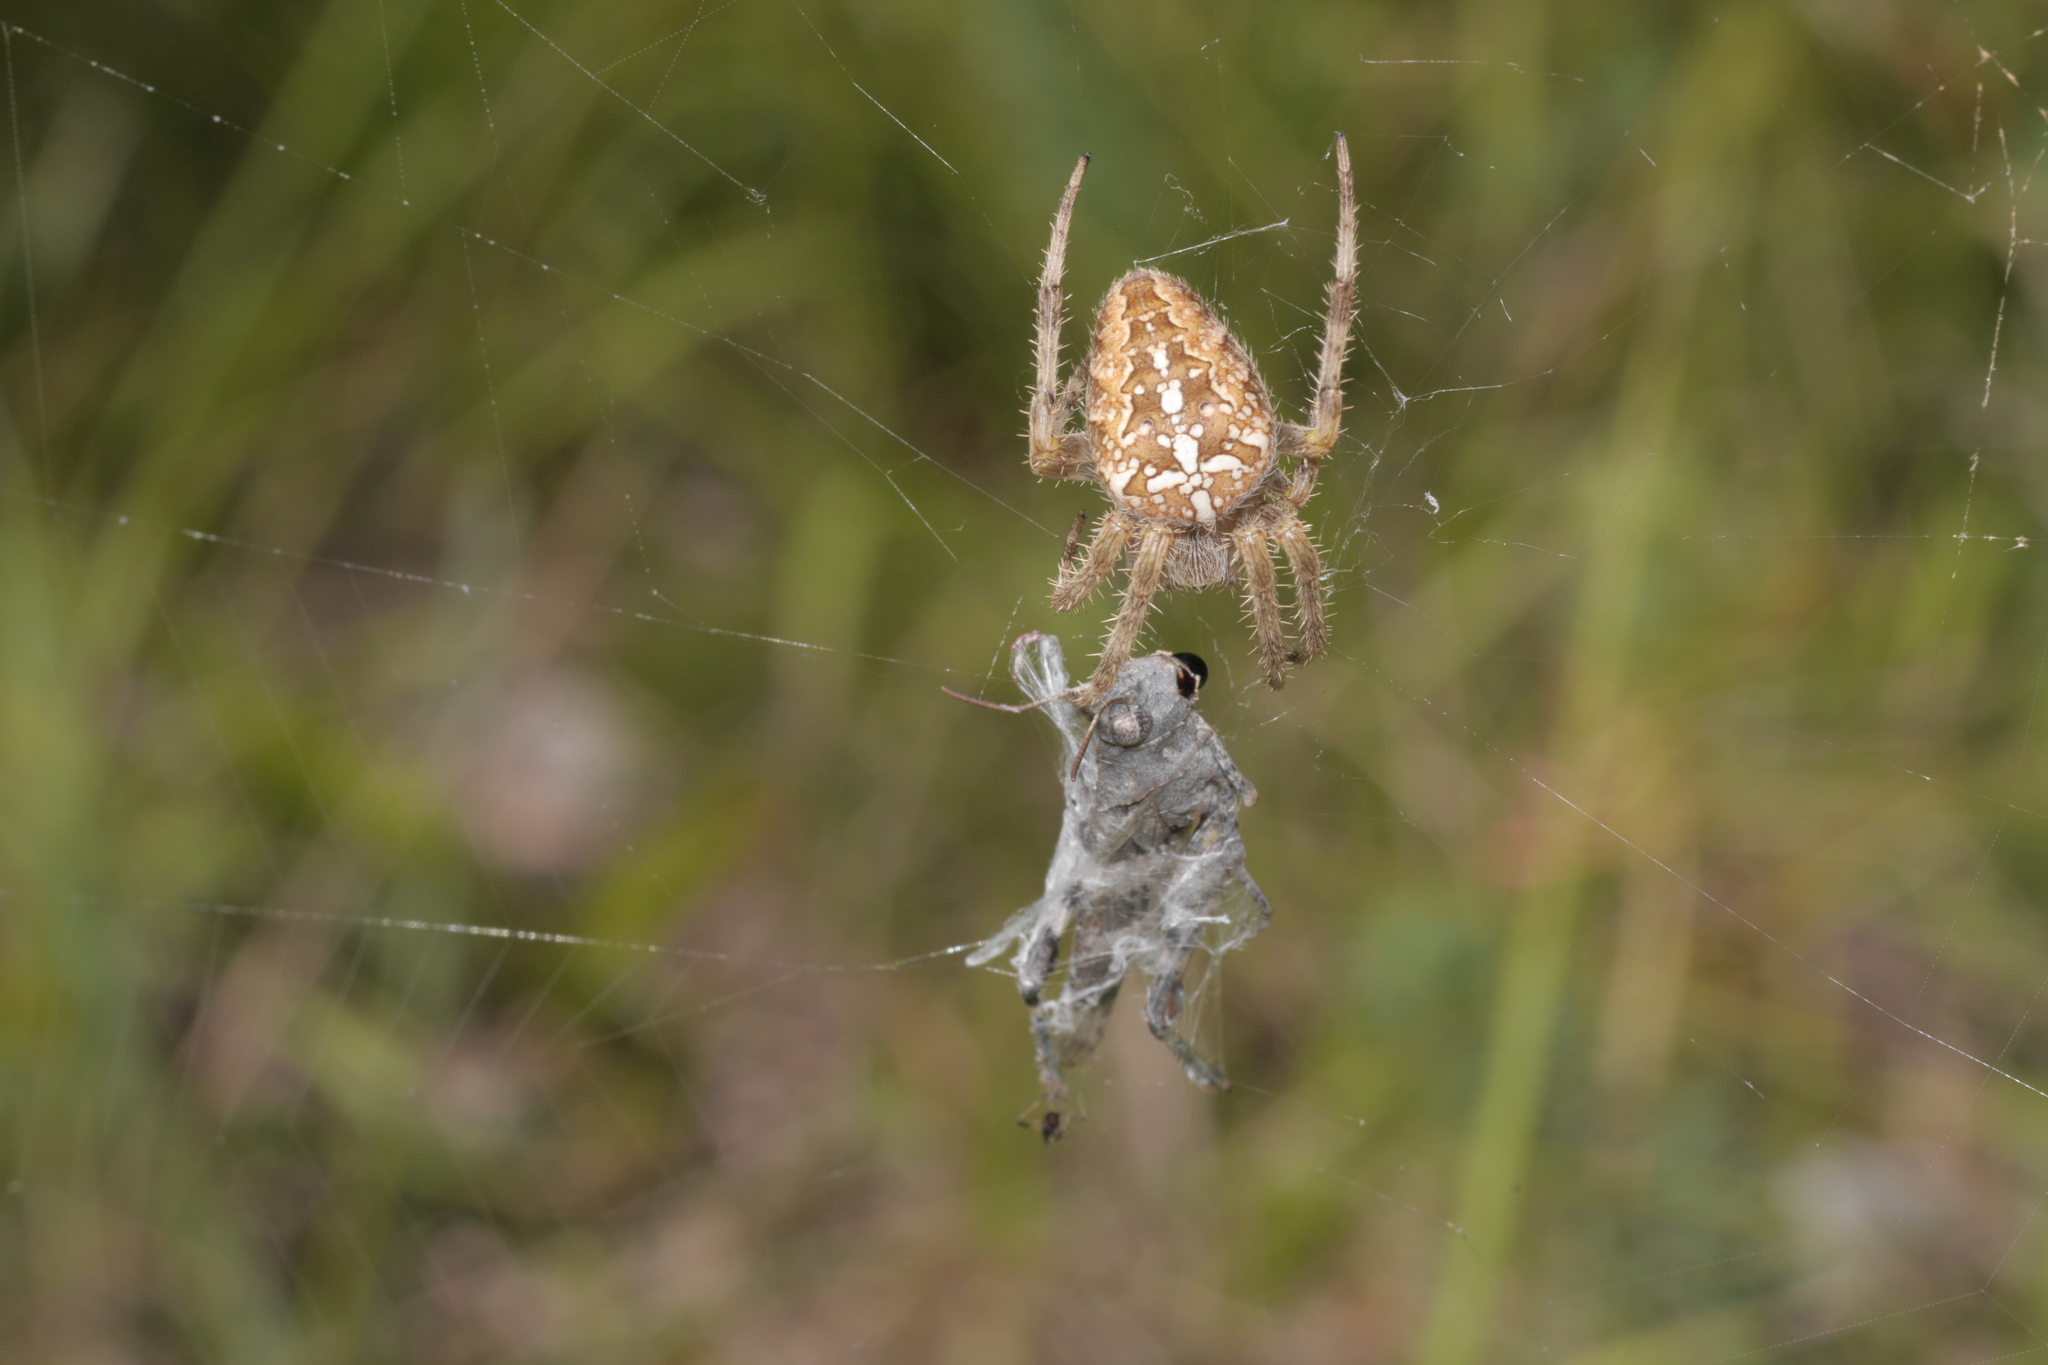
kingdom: Animalia
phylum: Arthropoda
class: Arachnida
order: Araneae
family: Araneidae
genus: Araneus
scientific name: Araneus diadematus
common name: Cross orbweaver
